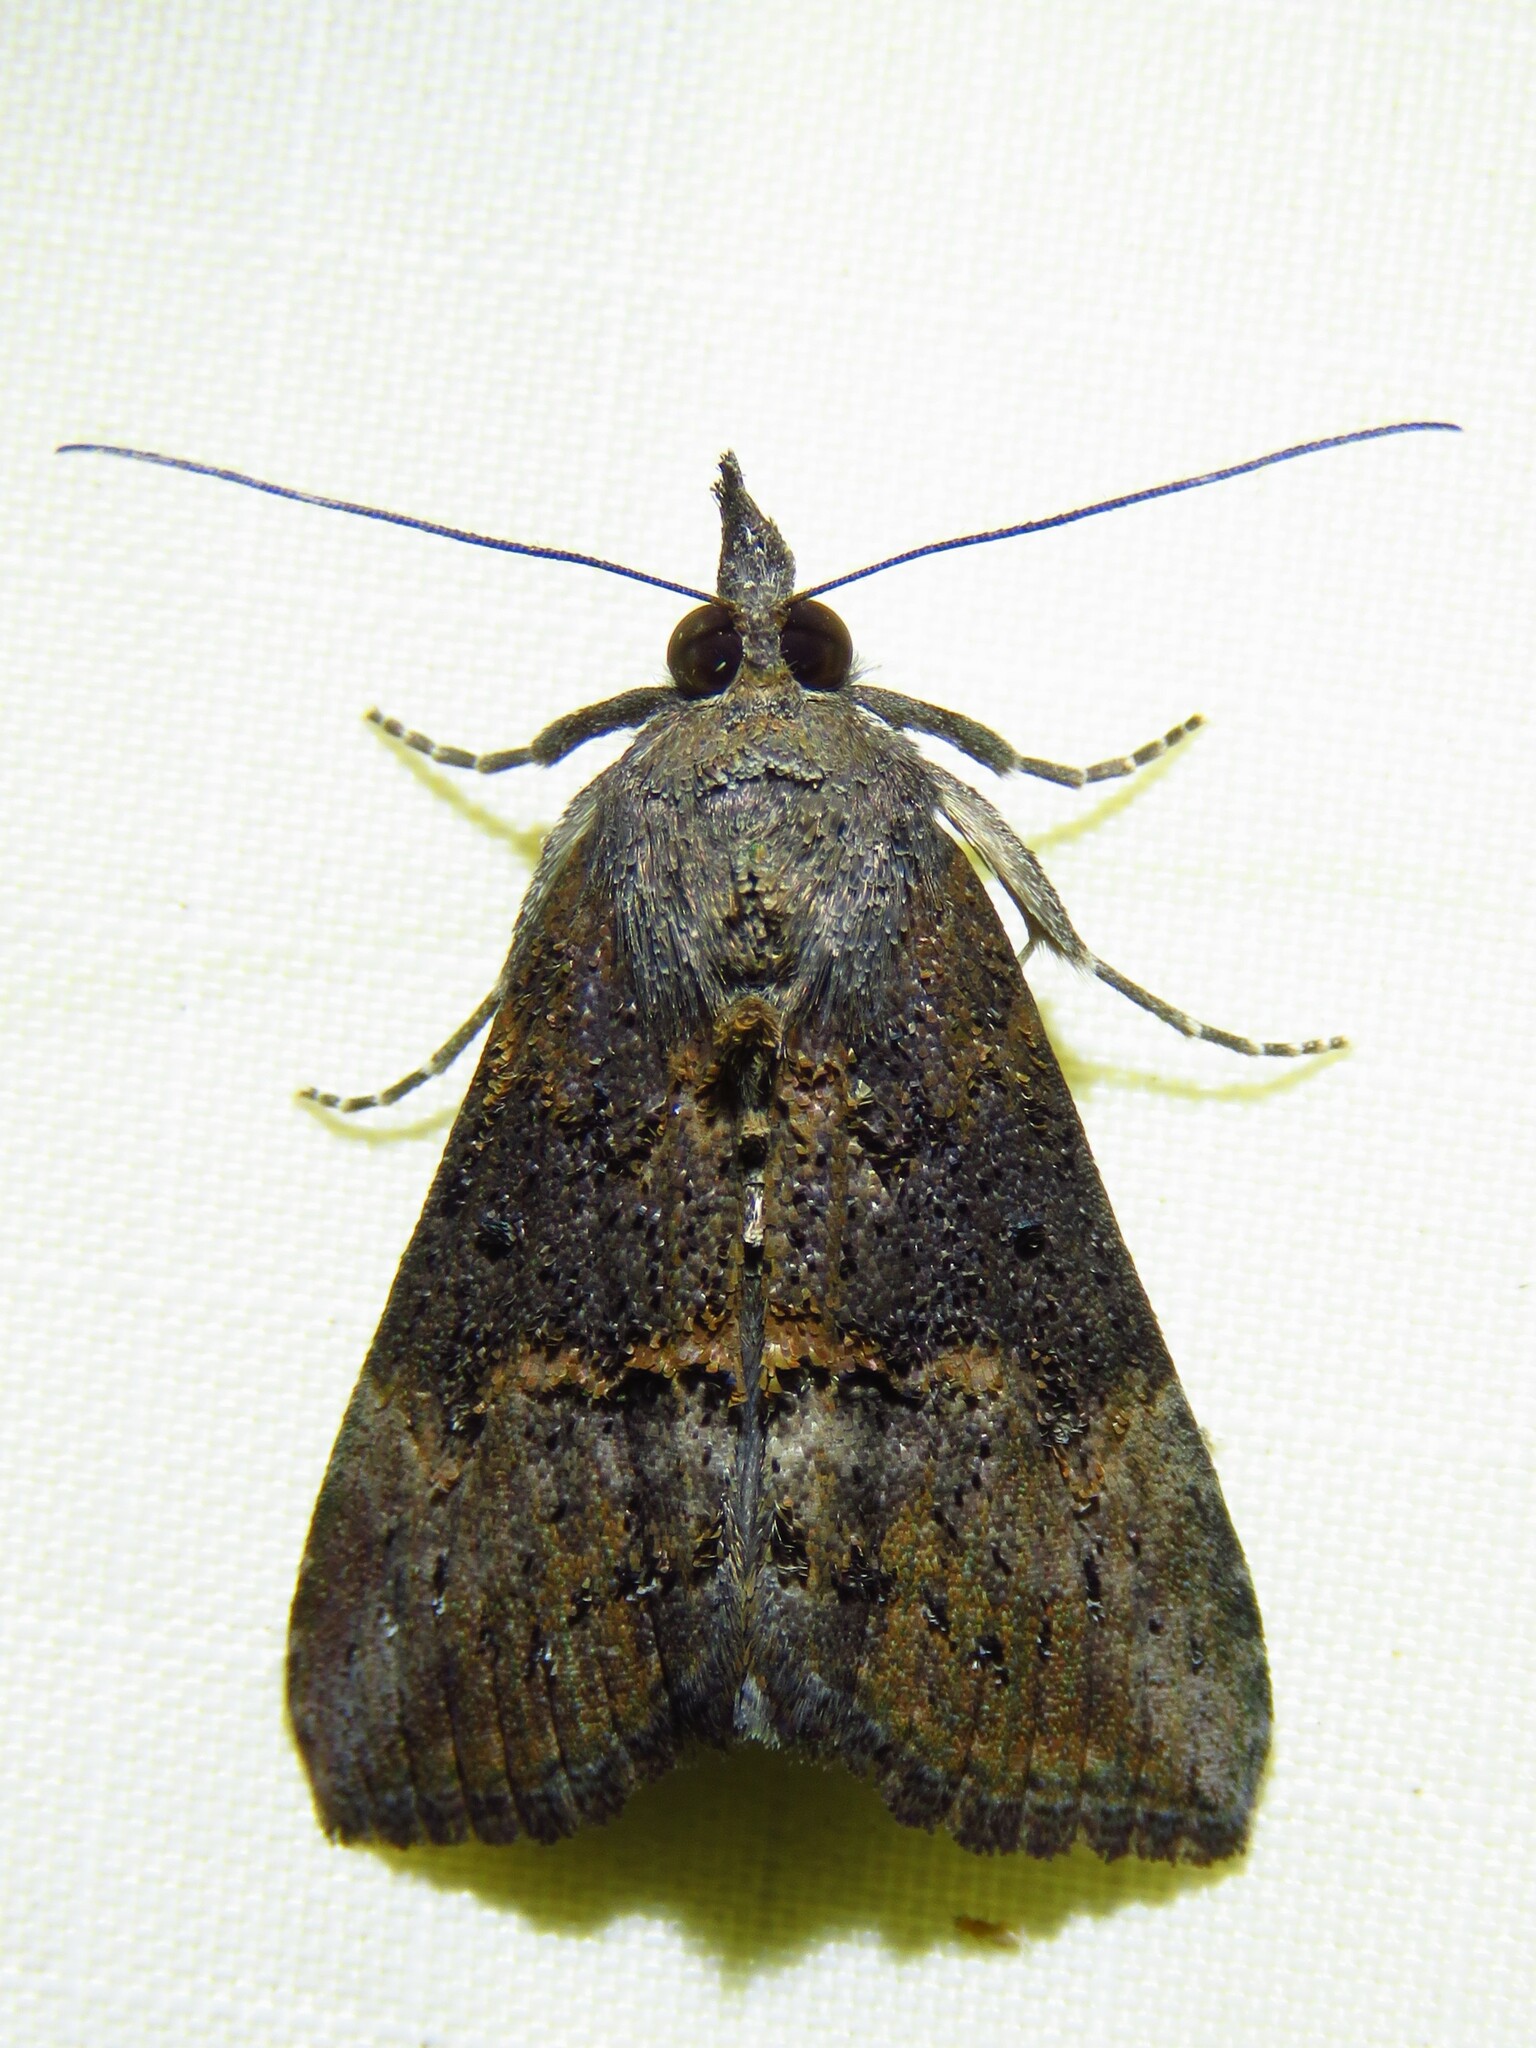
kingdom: Animalia
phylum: Arthropoda
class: Insecta
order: Lepidoptera
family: Erebidae
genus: Hypena
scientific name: Hypena scabra
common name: Green cloverworm
